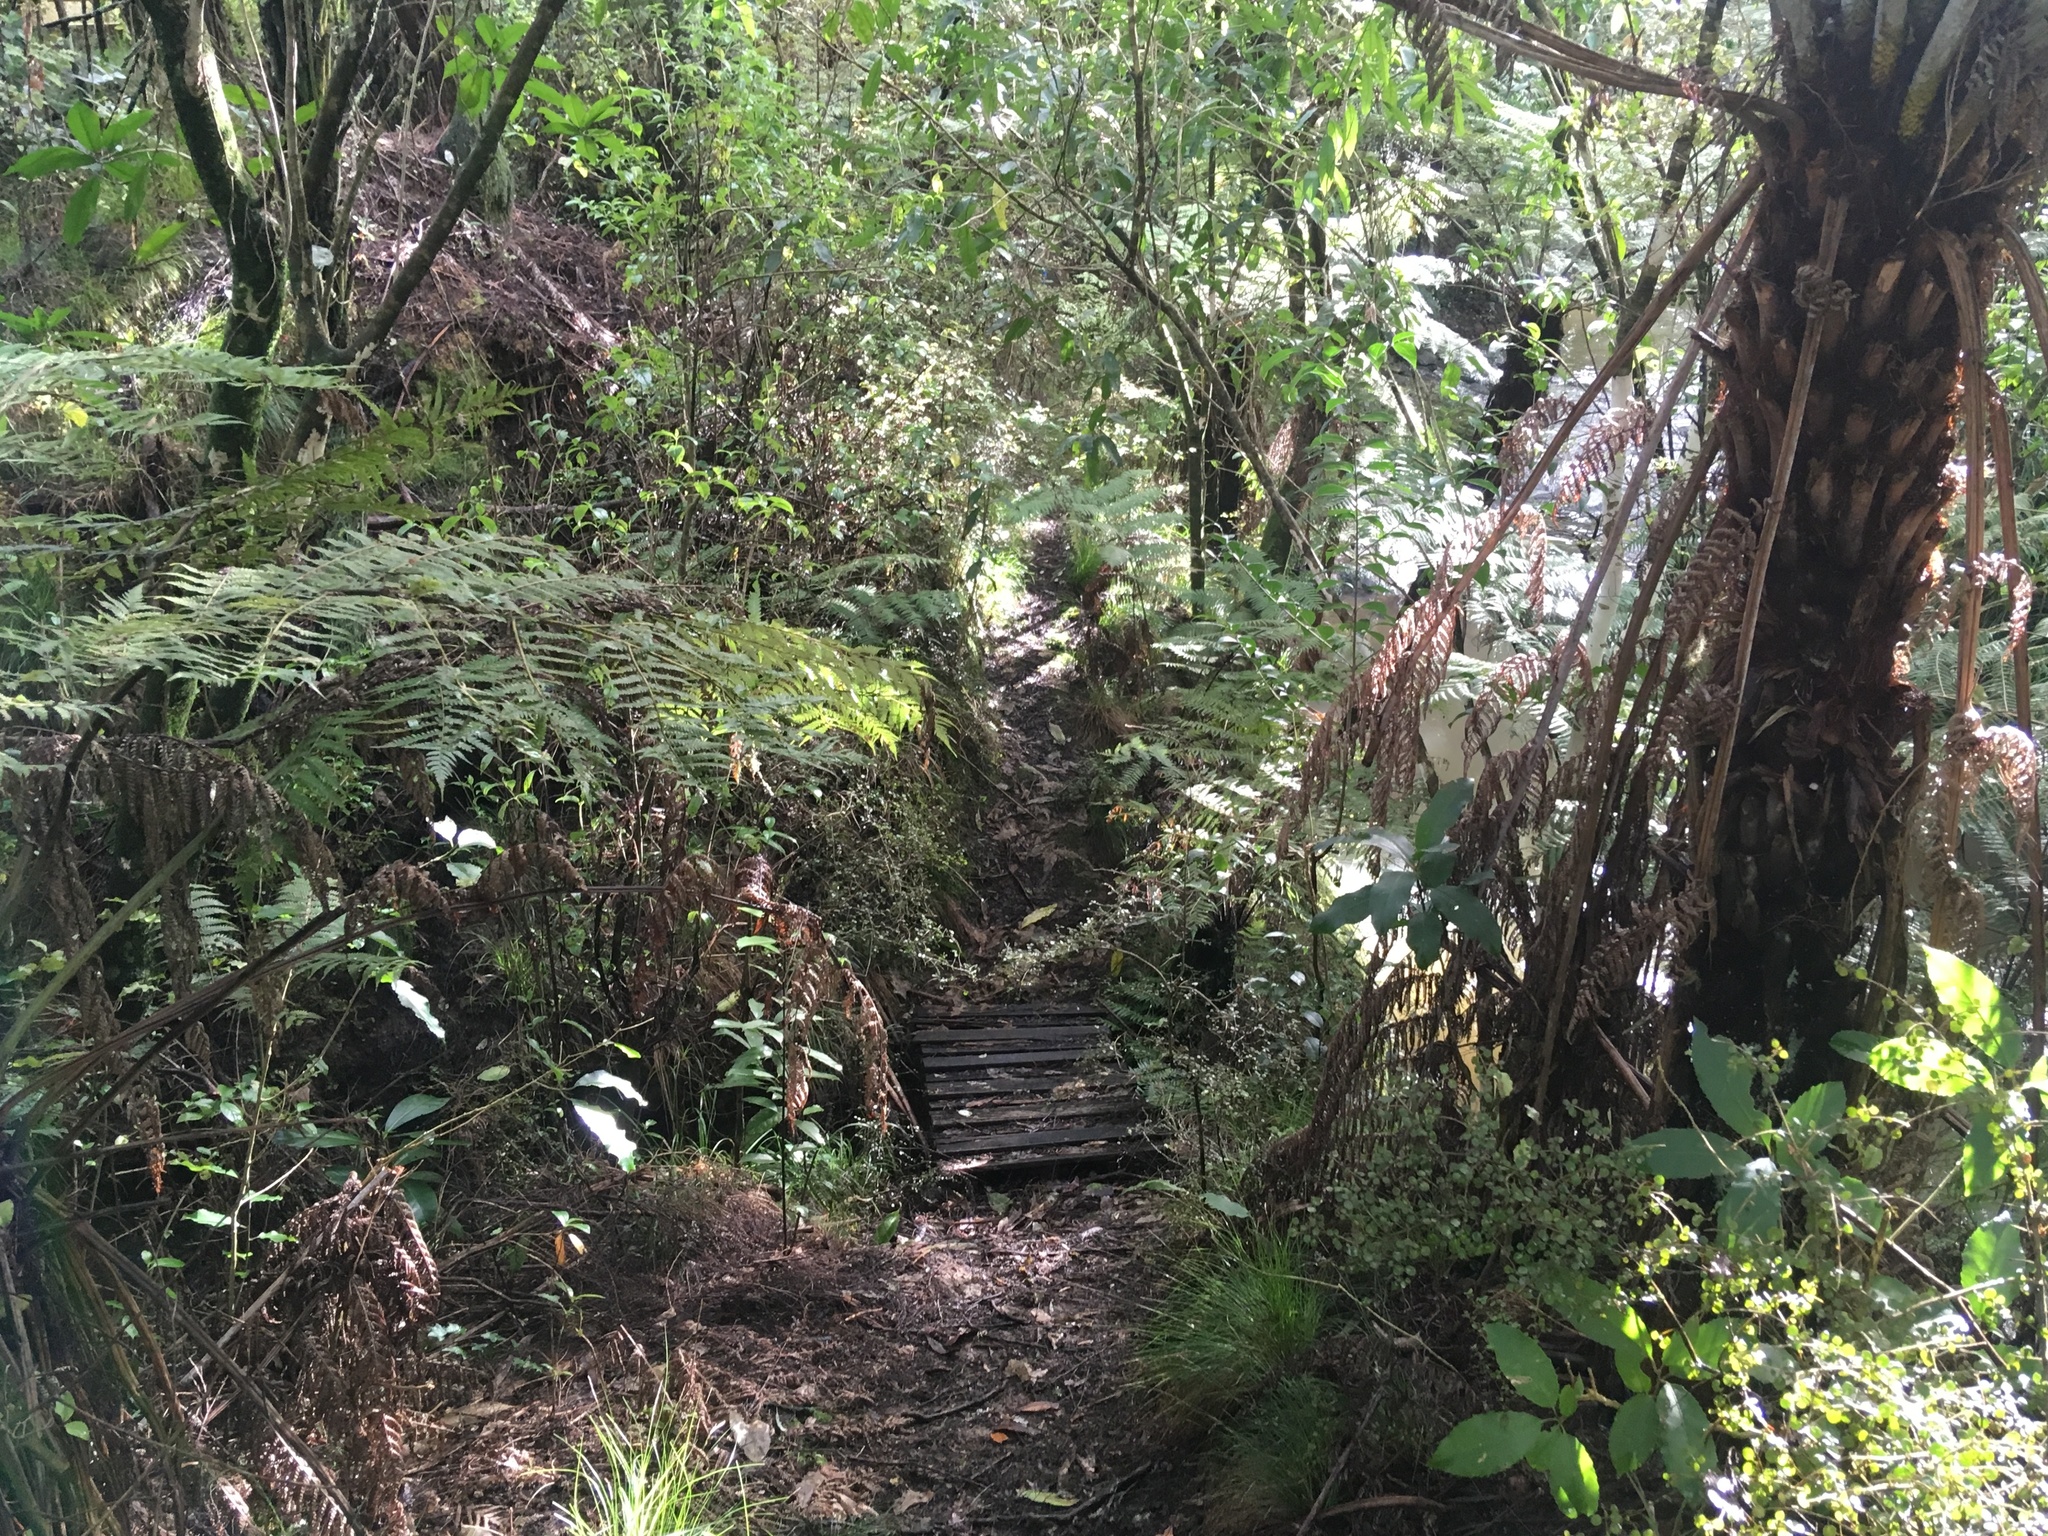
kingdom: Plantae
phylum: Tracheophyta
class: Polypodiopsida
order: Cyatheales
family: Cyatheaceae
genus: Alsophila
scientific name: Alsophila dealbata
